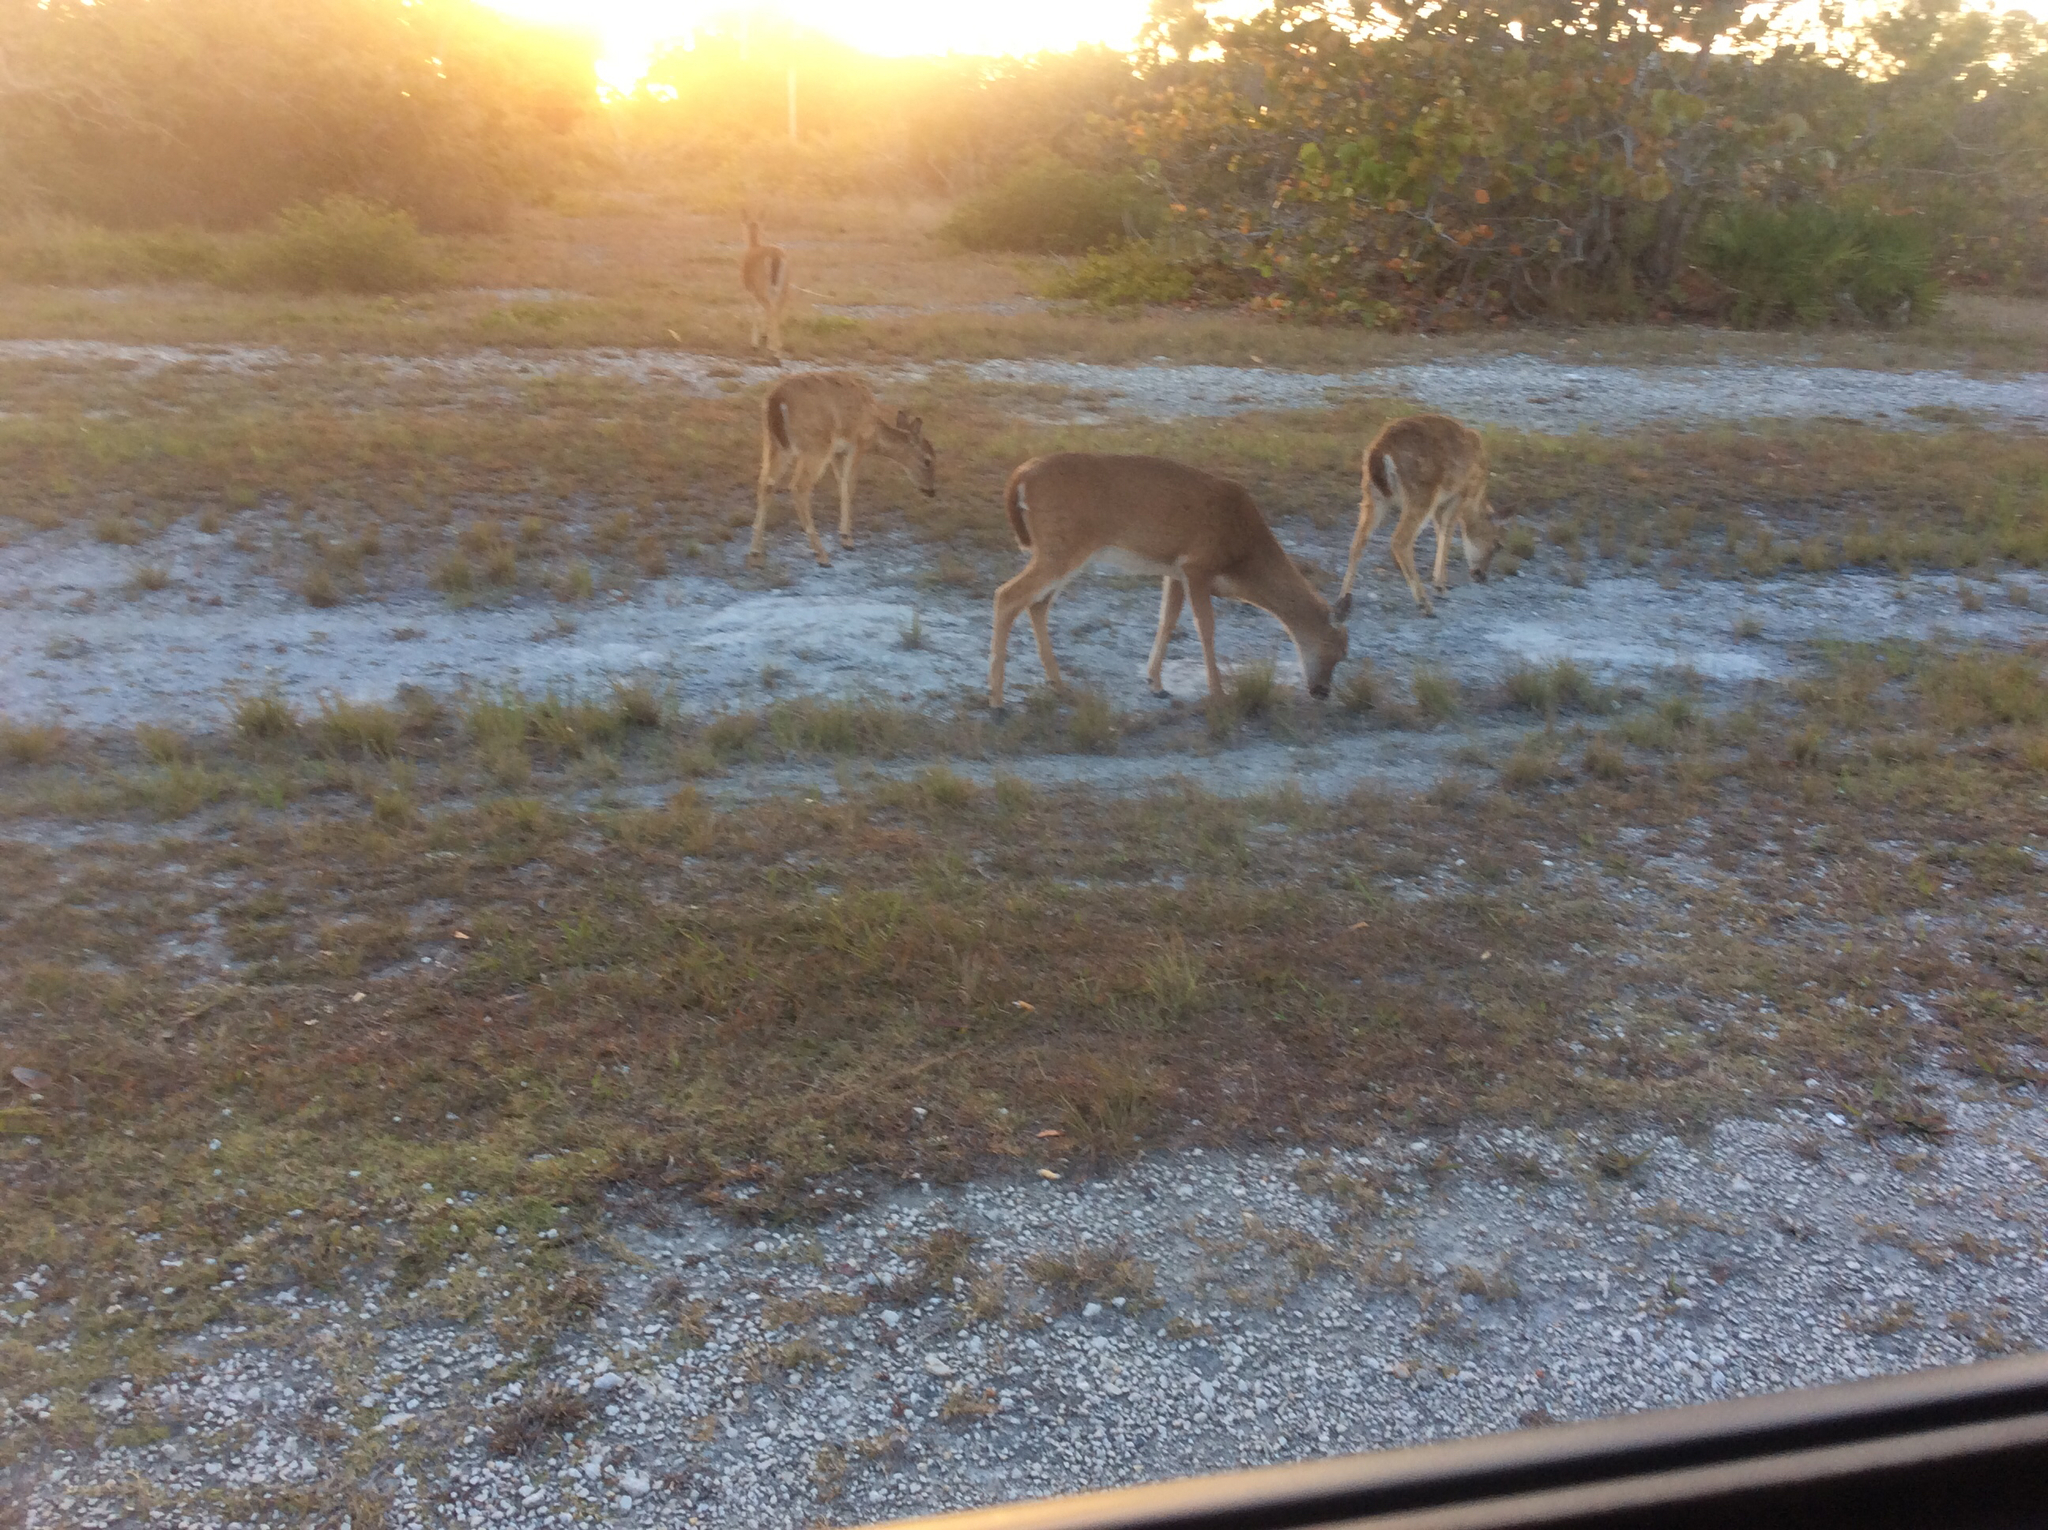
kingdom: Animalia
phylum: Chordata
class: Mammalia
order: Artiodactyla
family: Cervidae
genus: Odocoileus
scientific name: Odocoileus virginianus
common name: White-tailed deer
